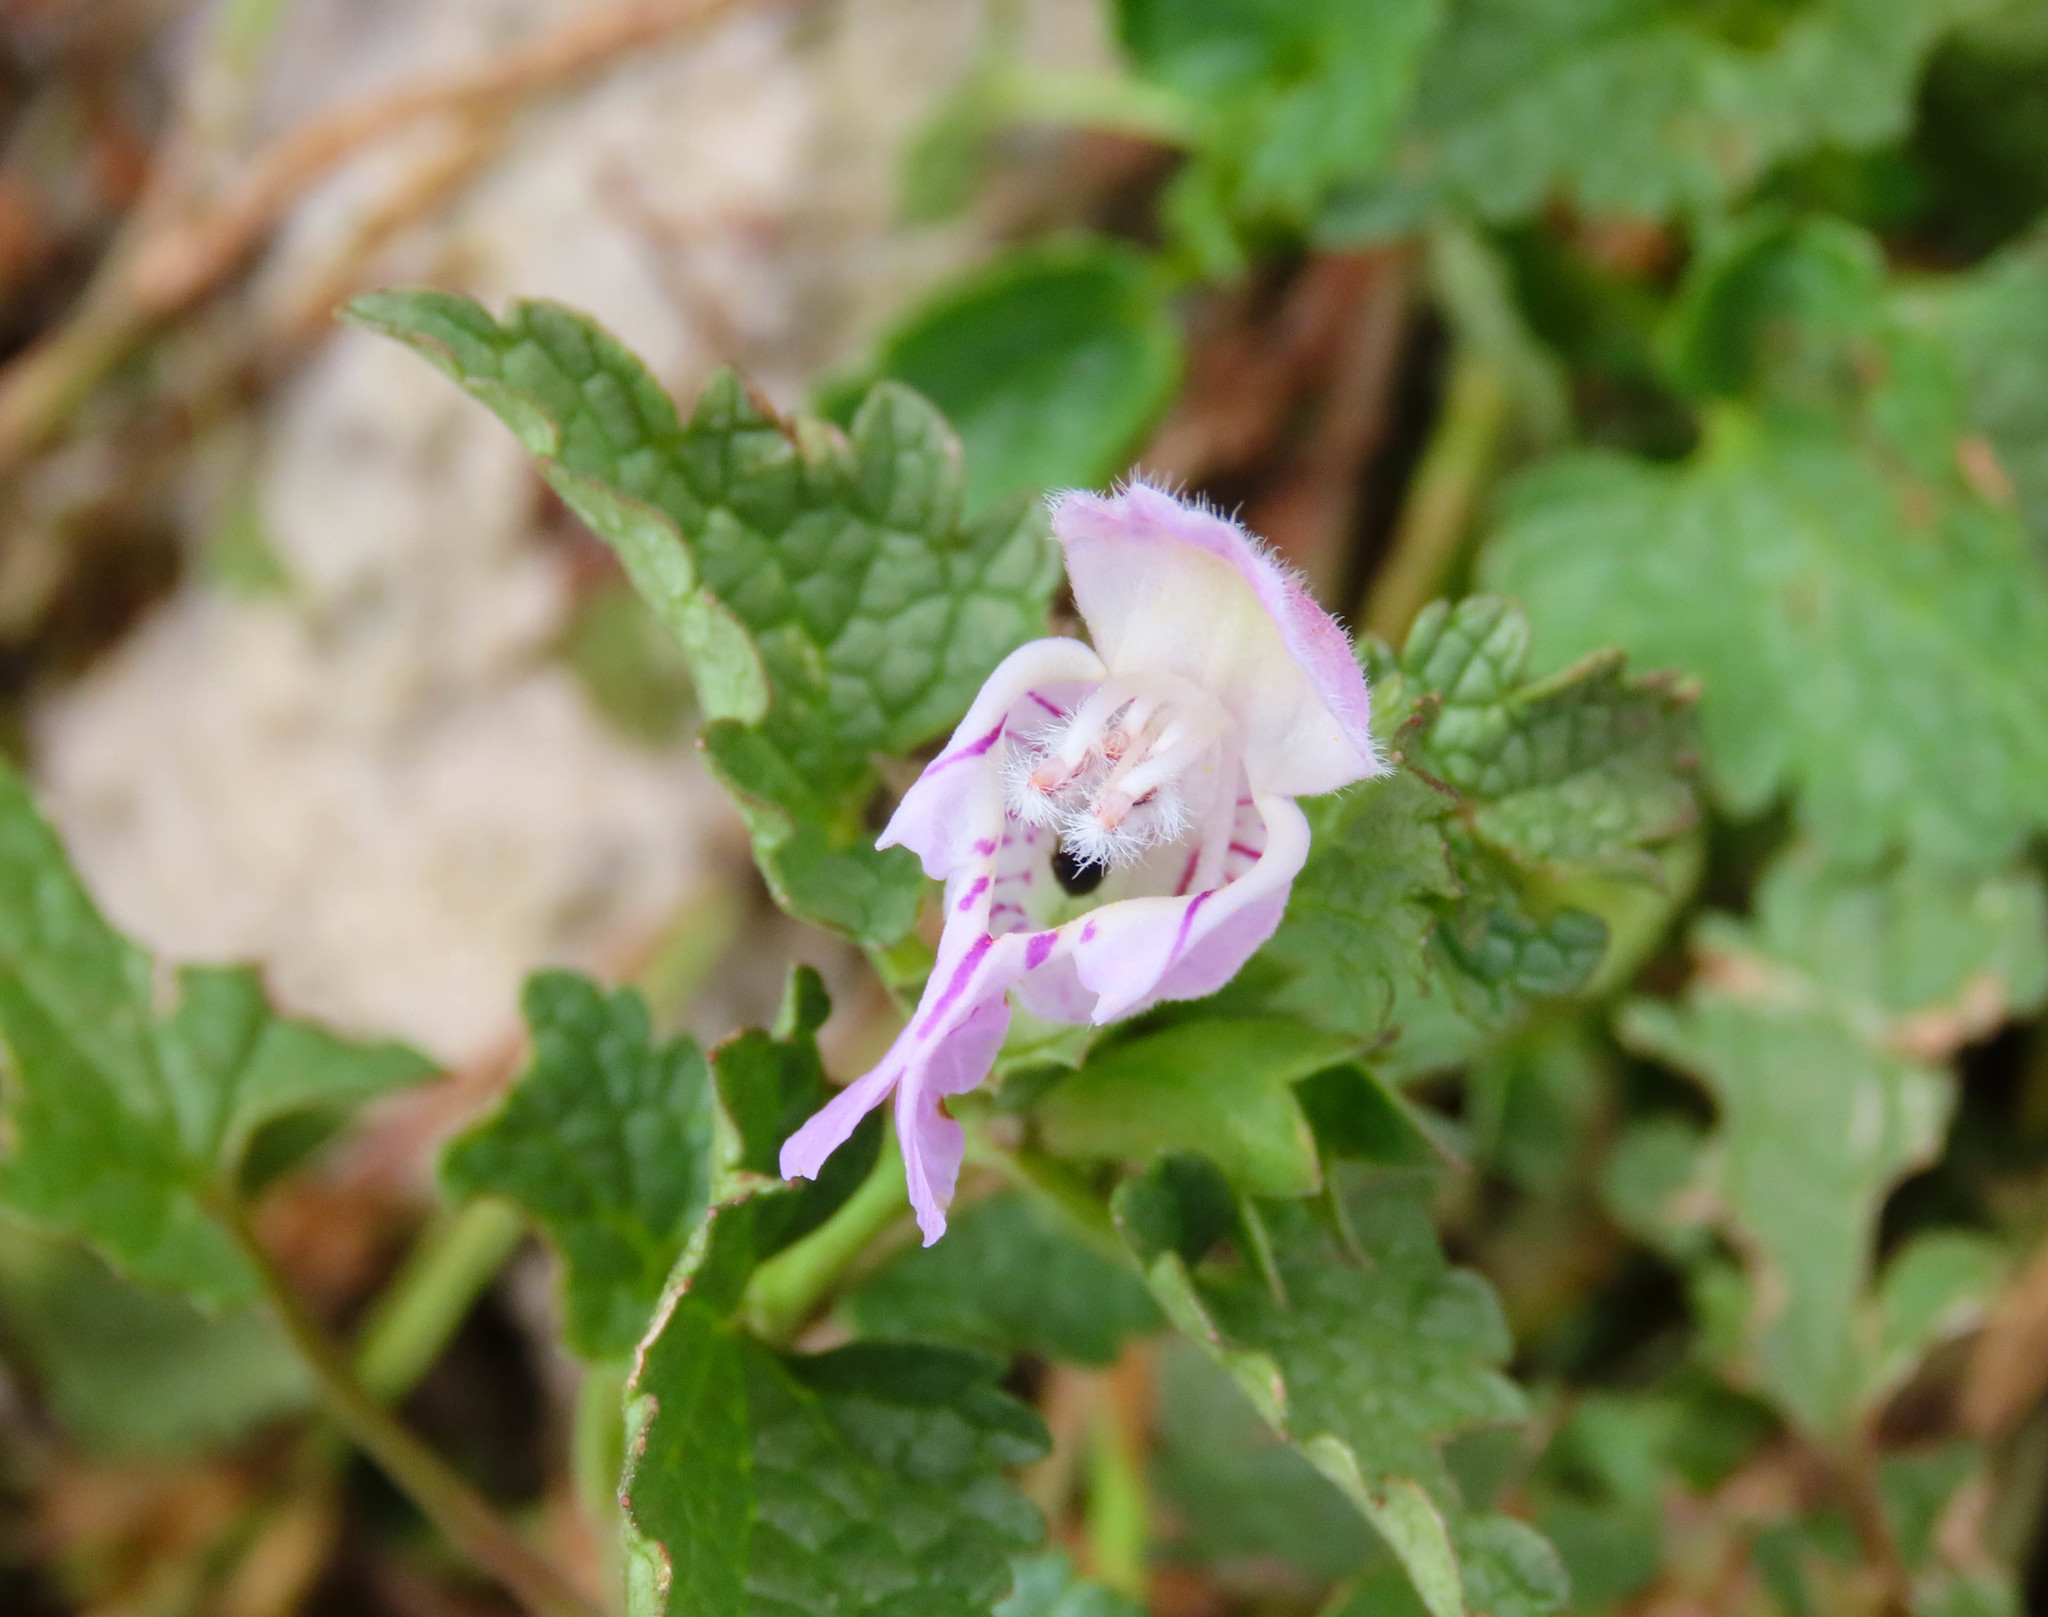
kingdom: Plantae
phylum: Tracheophyta
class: Magnoliopsida
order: Lamiales
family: Lamiaceae
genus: Lamium
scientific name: Lamium garganicum
